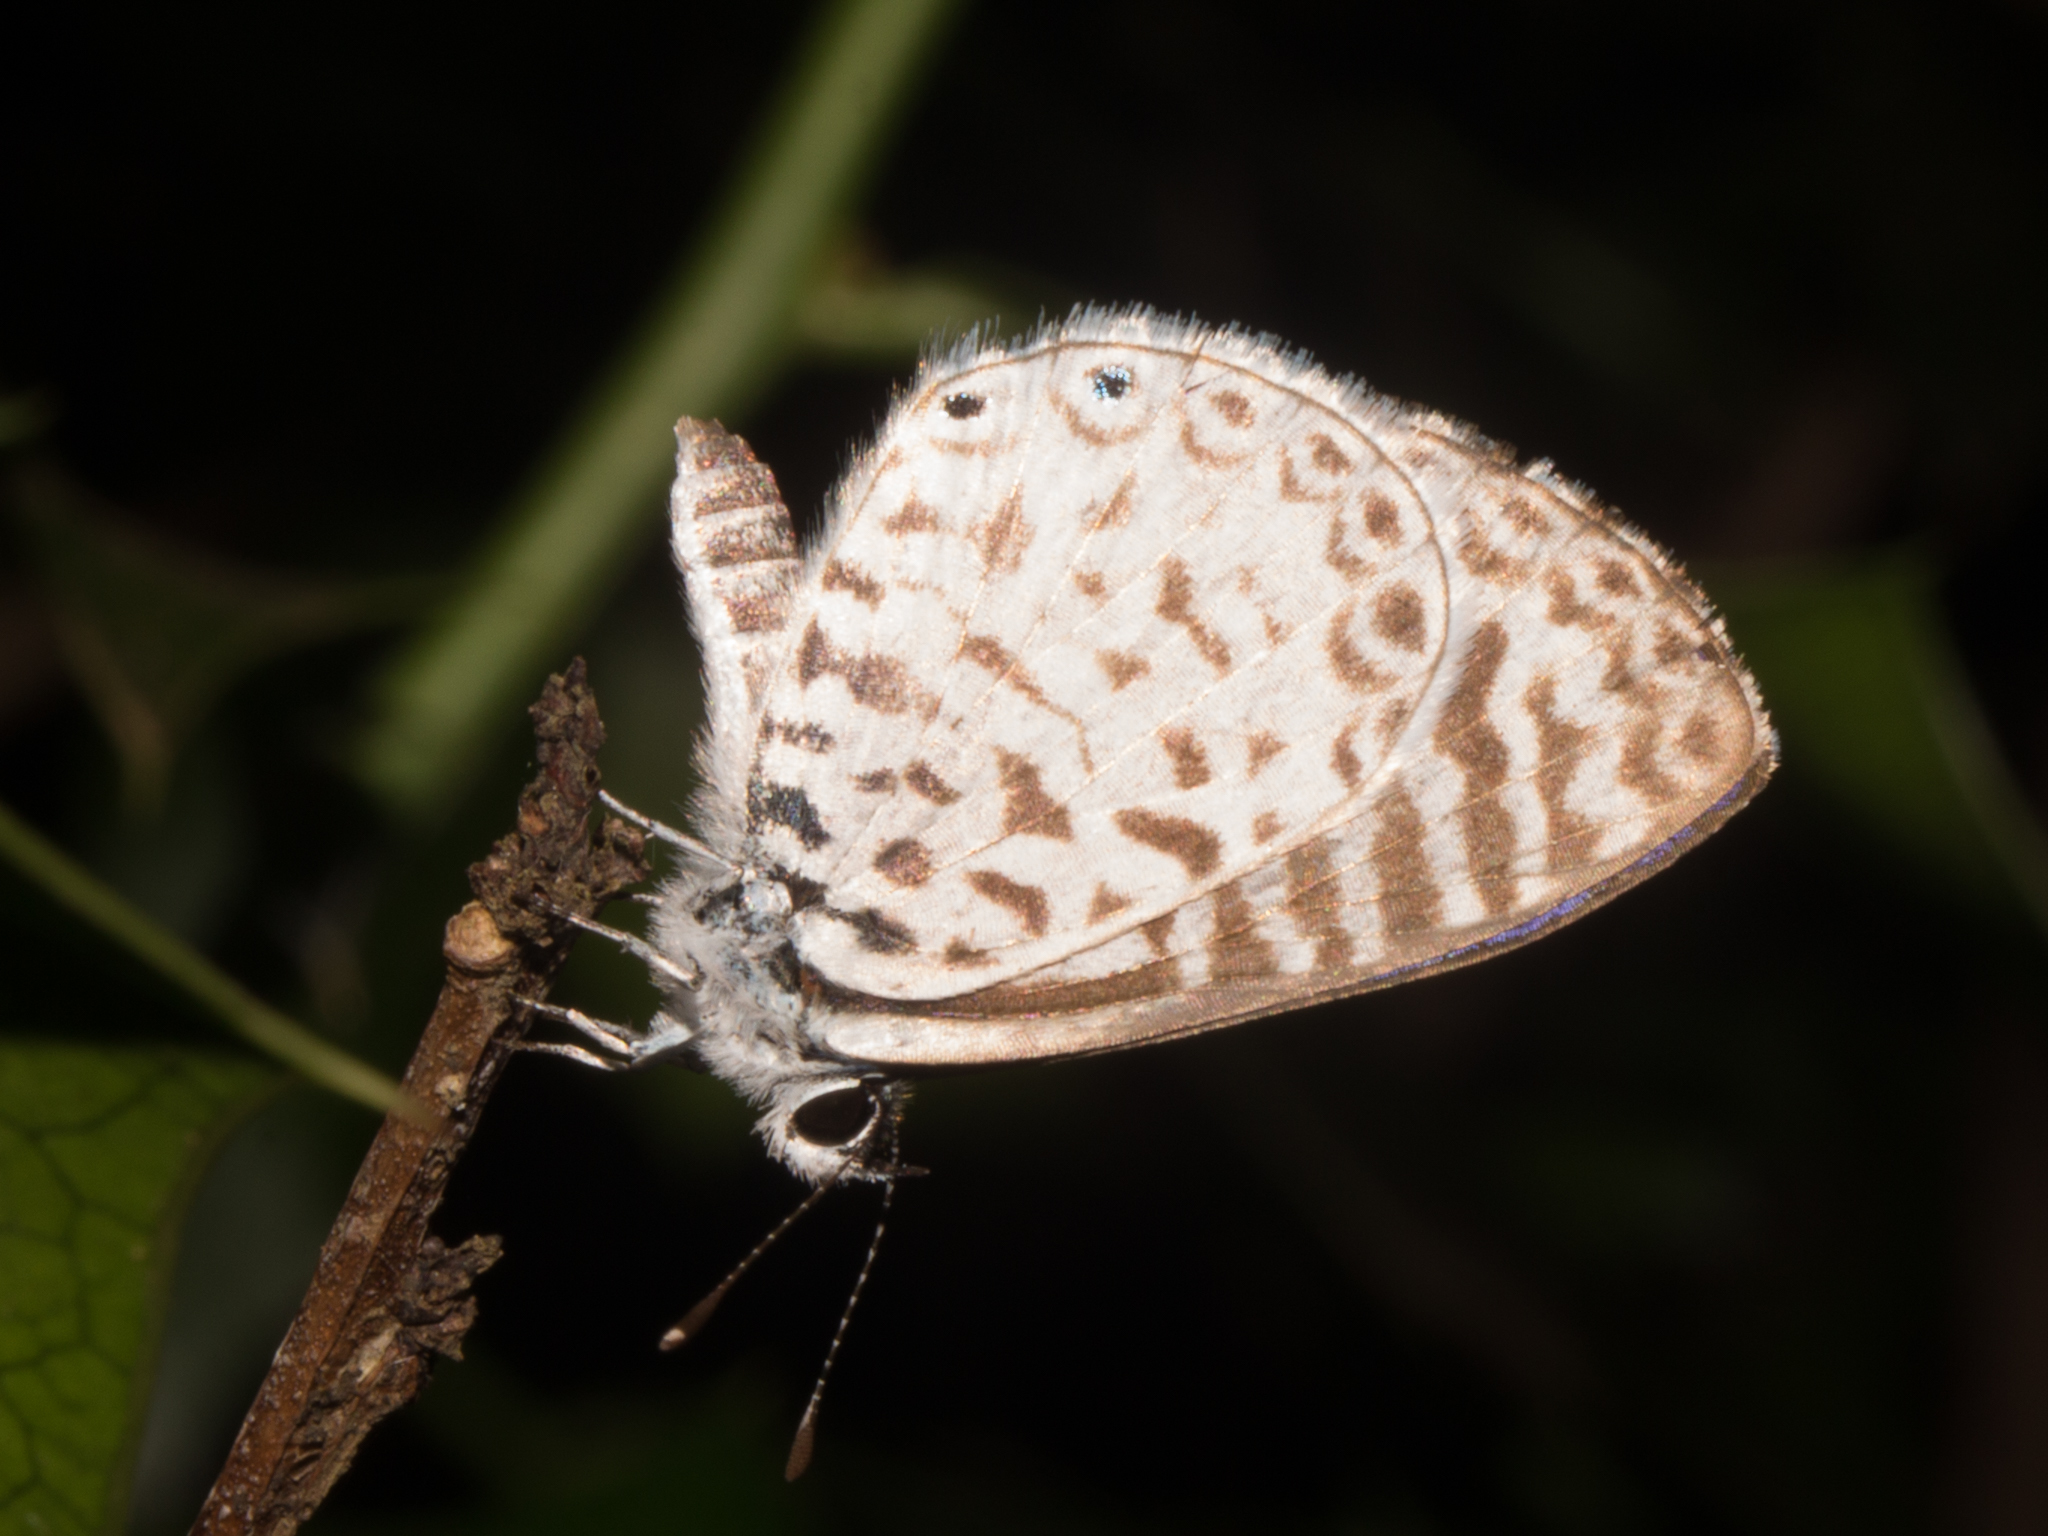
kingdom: Animalia
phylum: Arthropoda
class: Insecta
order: Lepidoptera
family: Lycaenidae
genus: Leptotes
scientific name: Leptotes cassius
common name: Cassius blue
